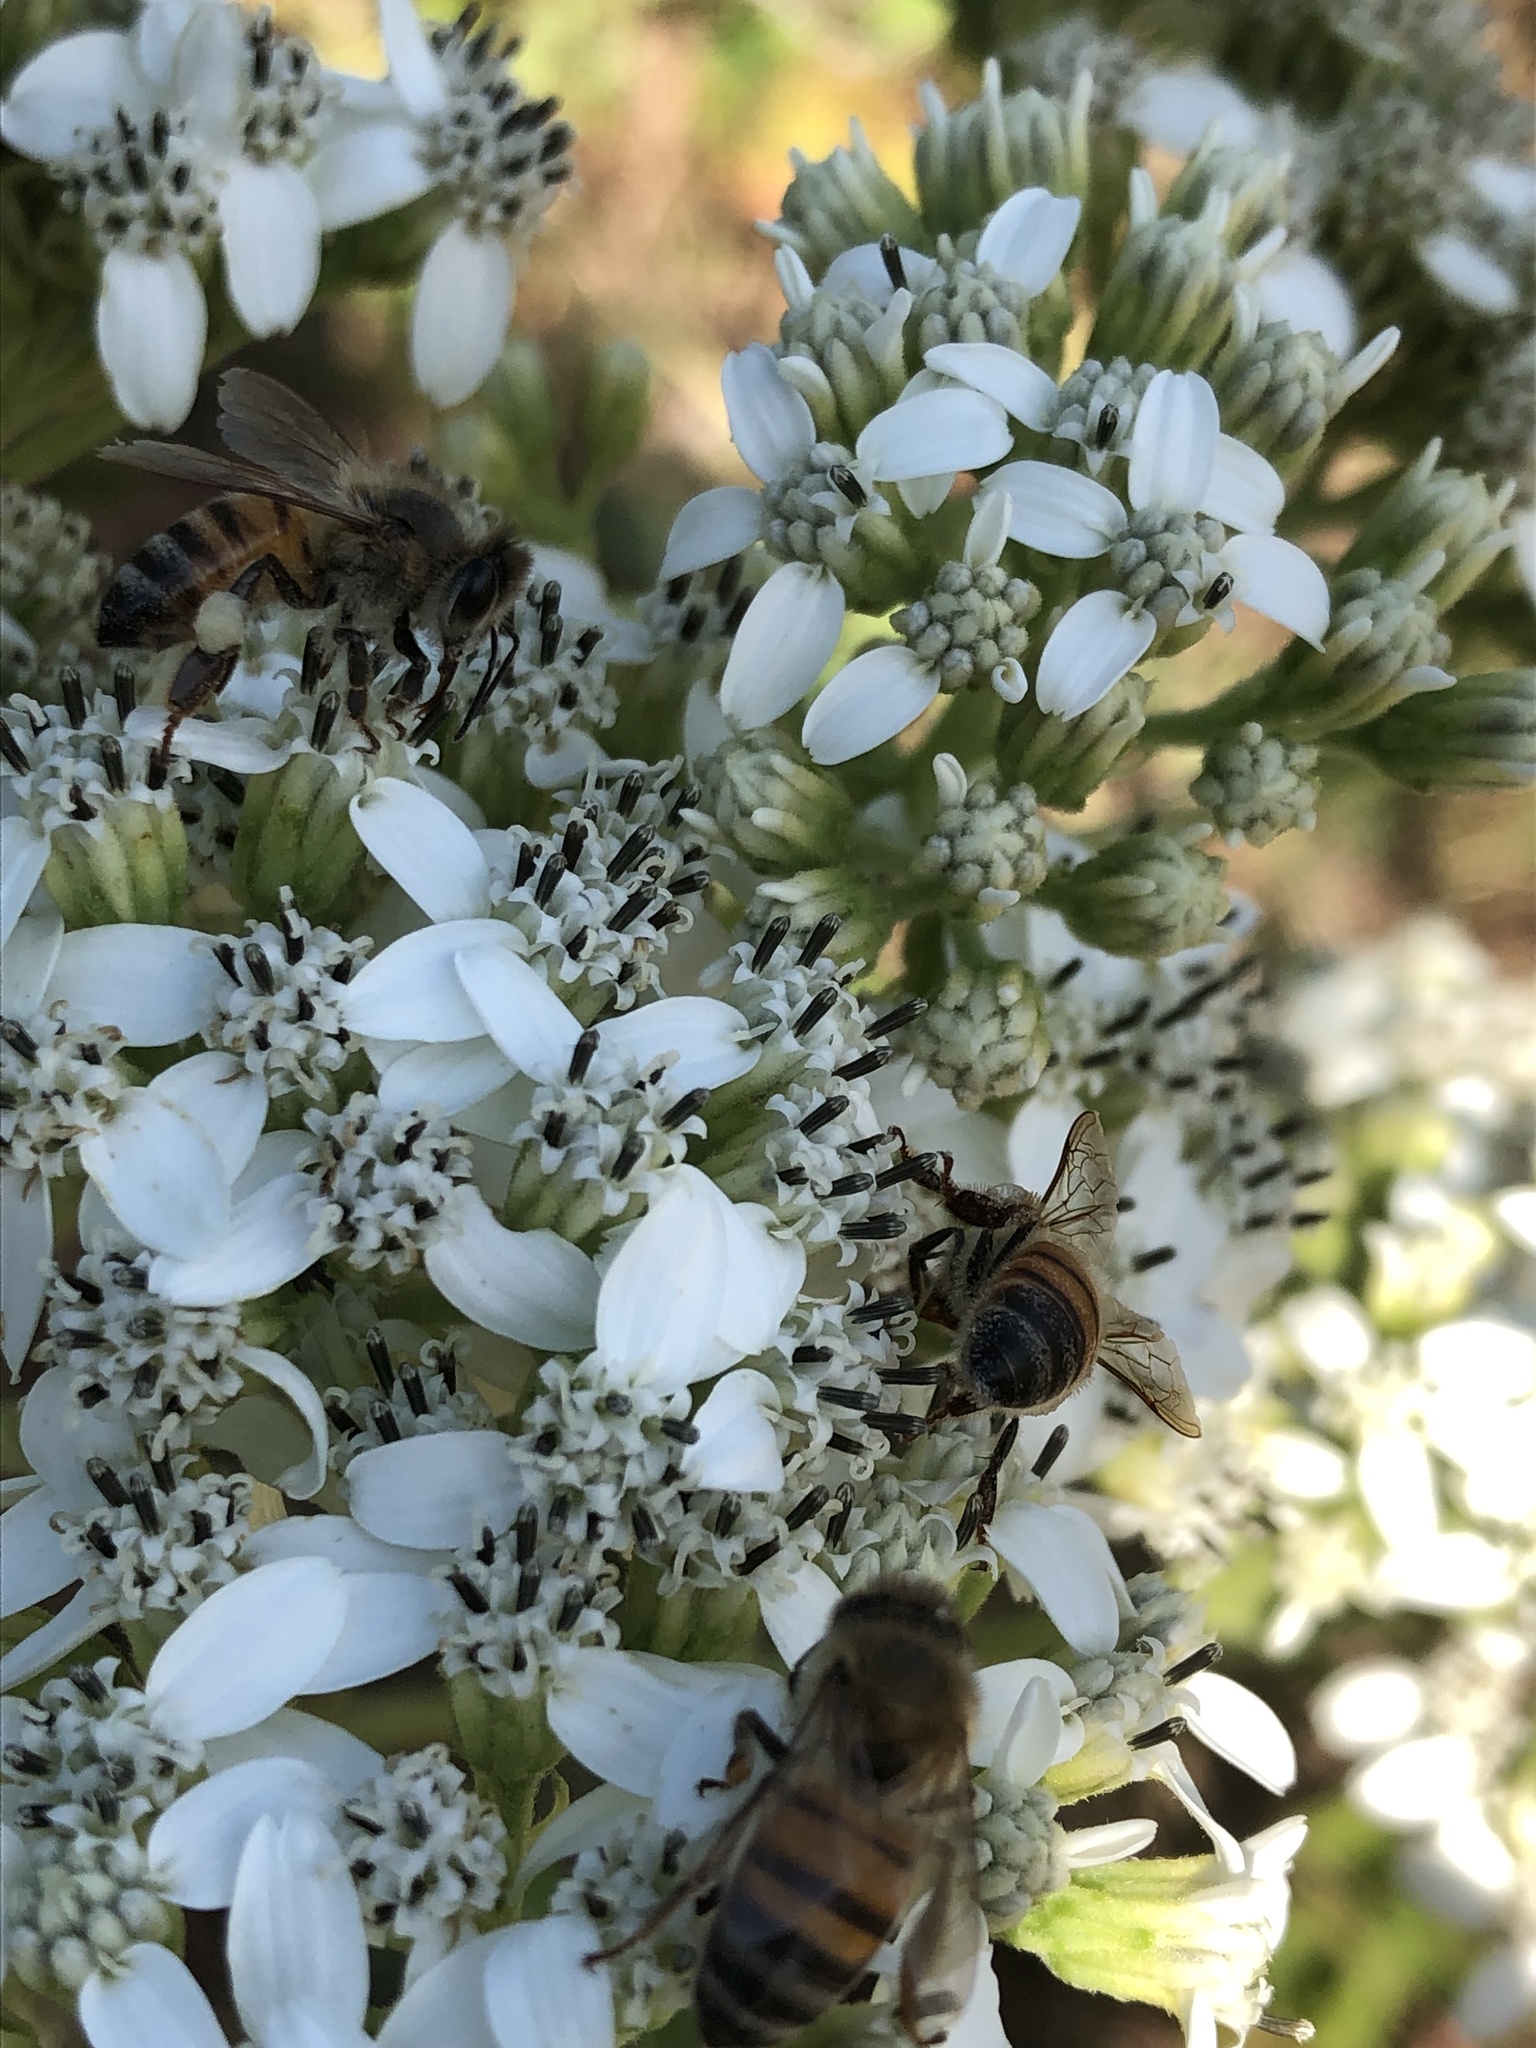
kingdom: Animalia
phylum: Arthropoda
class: Insecta
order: Hymenoptera
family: Apidae
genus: Apis
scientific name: Apis mellifera
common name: Honey bee
